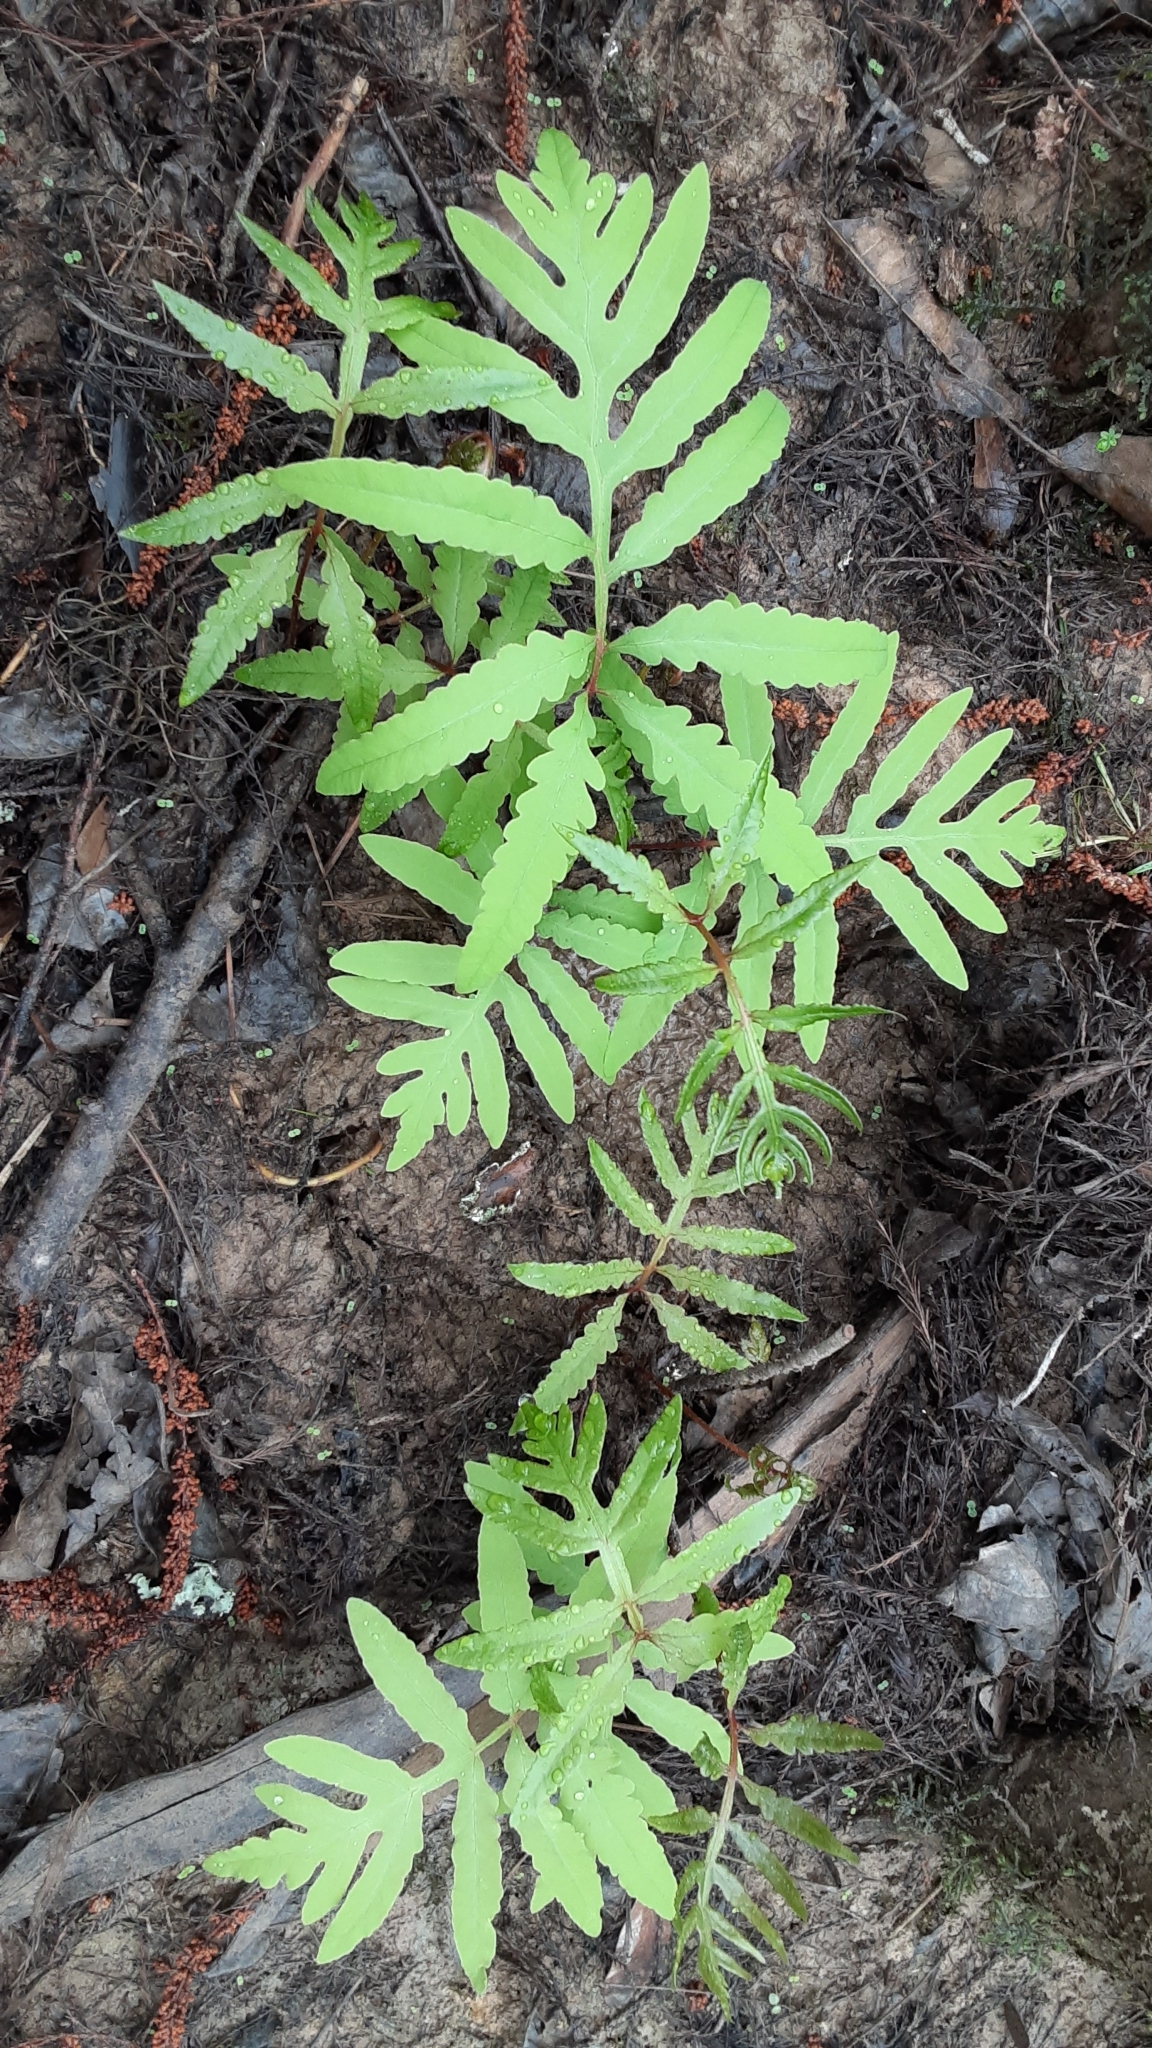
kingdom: Plantae
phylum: Tracheophyta
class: Polypodiopsida
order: Polypodiales
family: Onocleaceae
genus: Onoclea
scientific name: Onoclea sensibilis
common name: Sensitive fern
